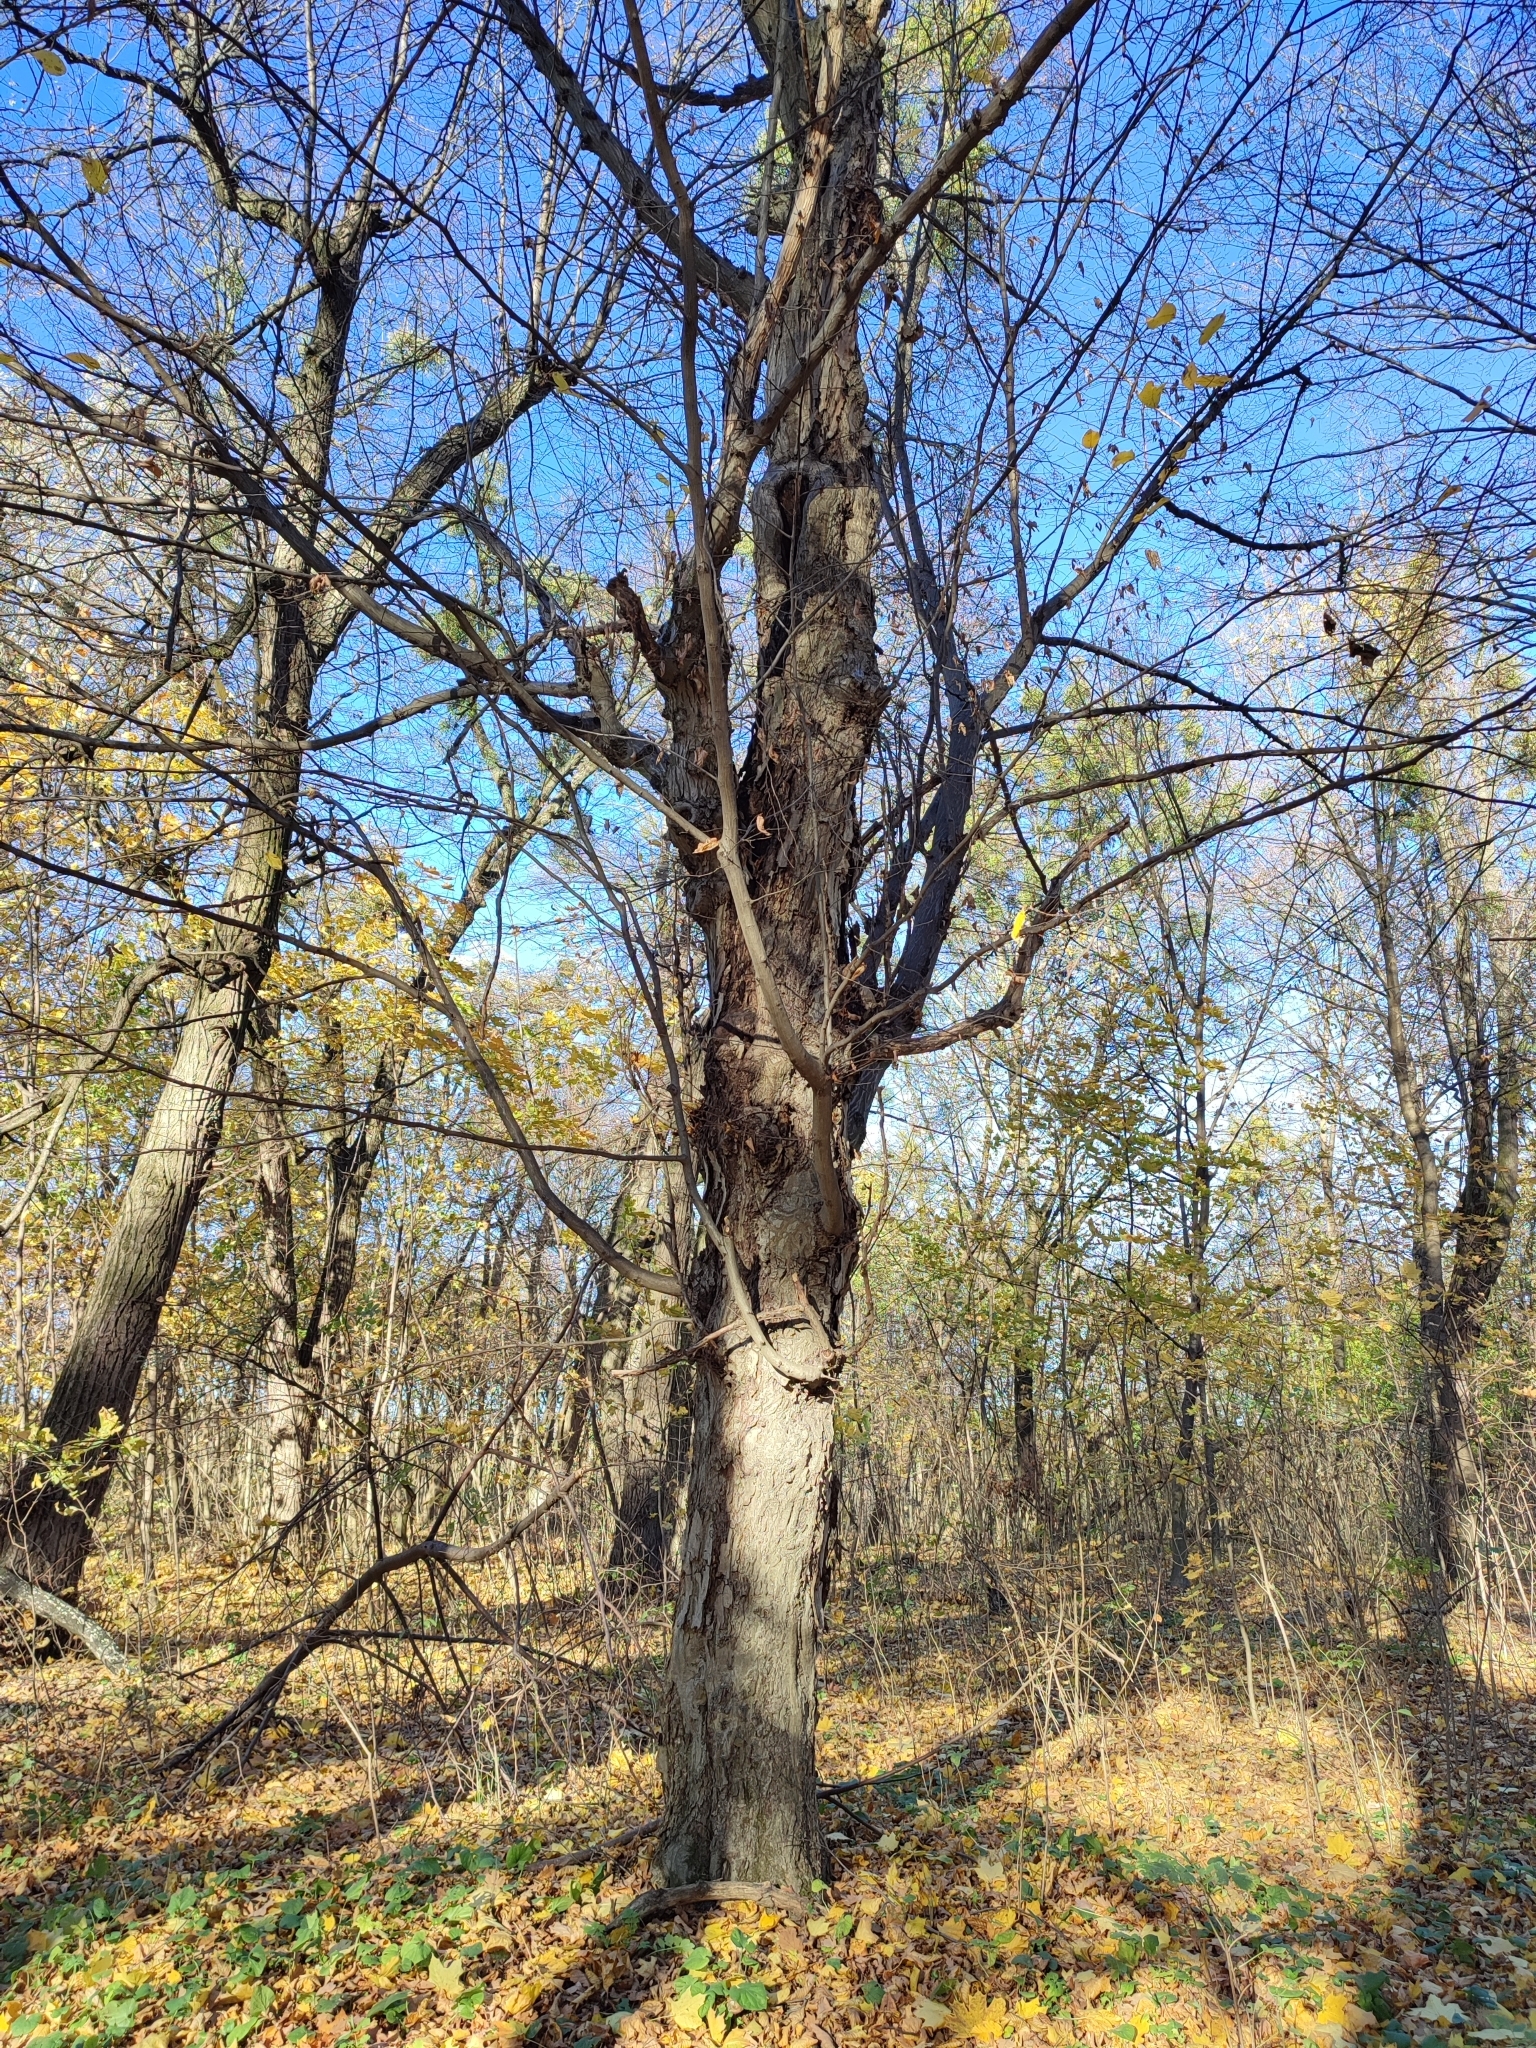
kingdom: Plantae
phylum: Tracheophyta
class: Magnoliopsida
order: Fagales
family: Betulaceae
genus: Carpinus
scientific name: Carpinus betulus
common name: Hornbeam
